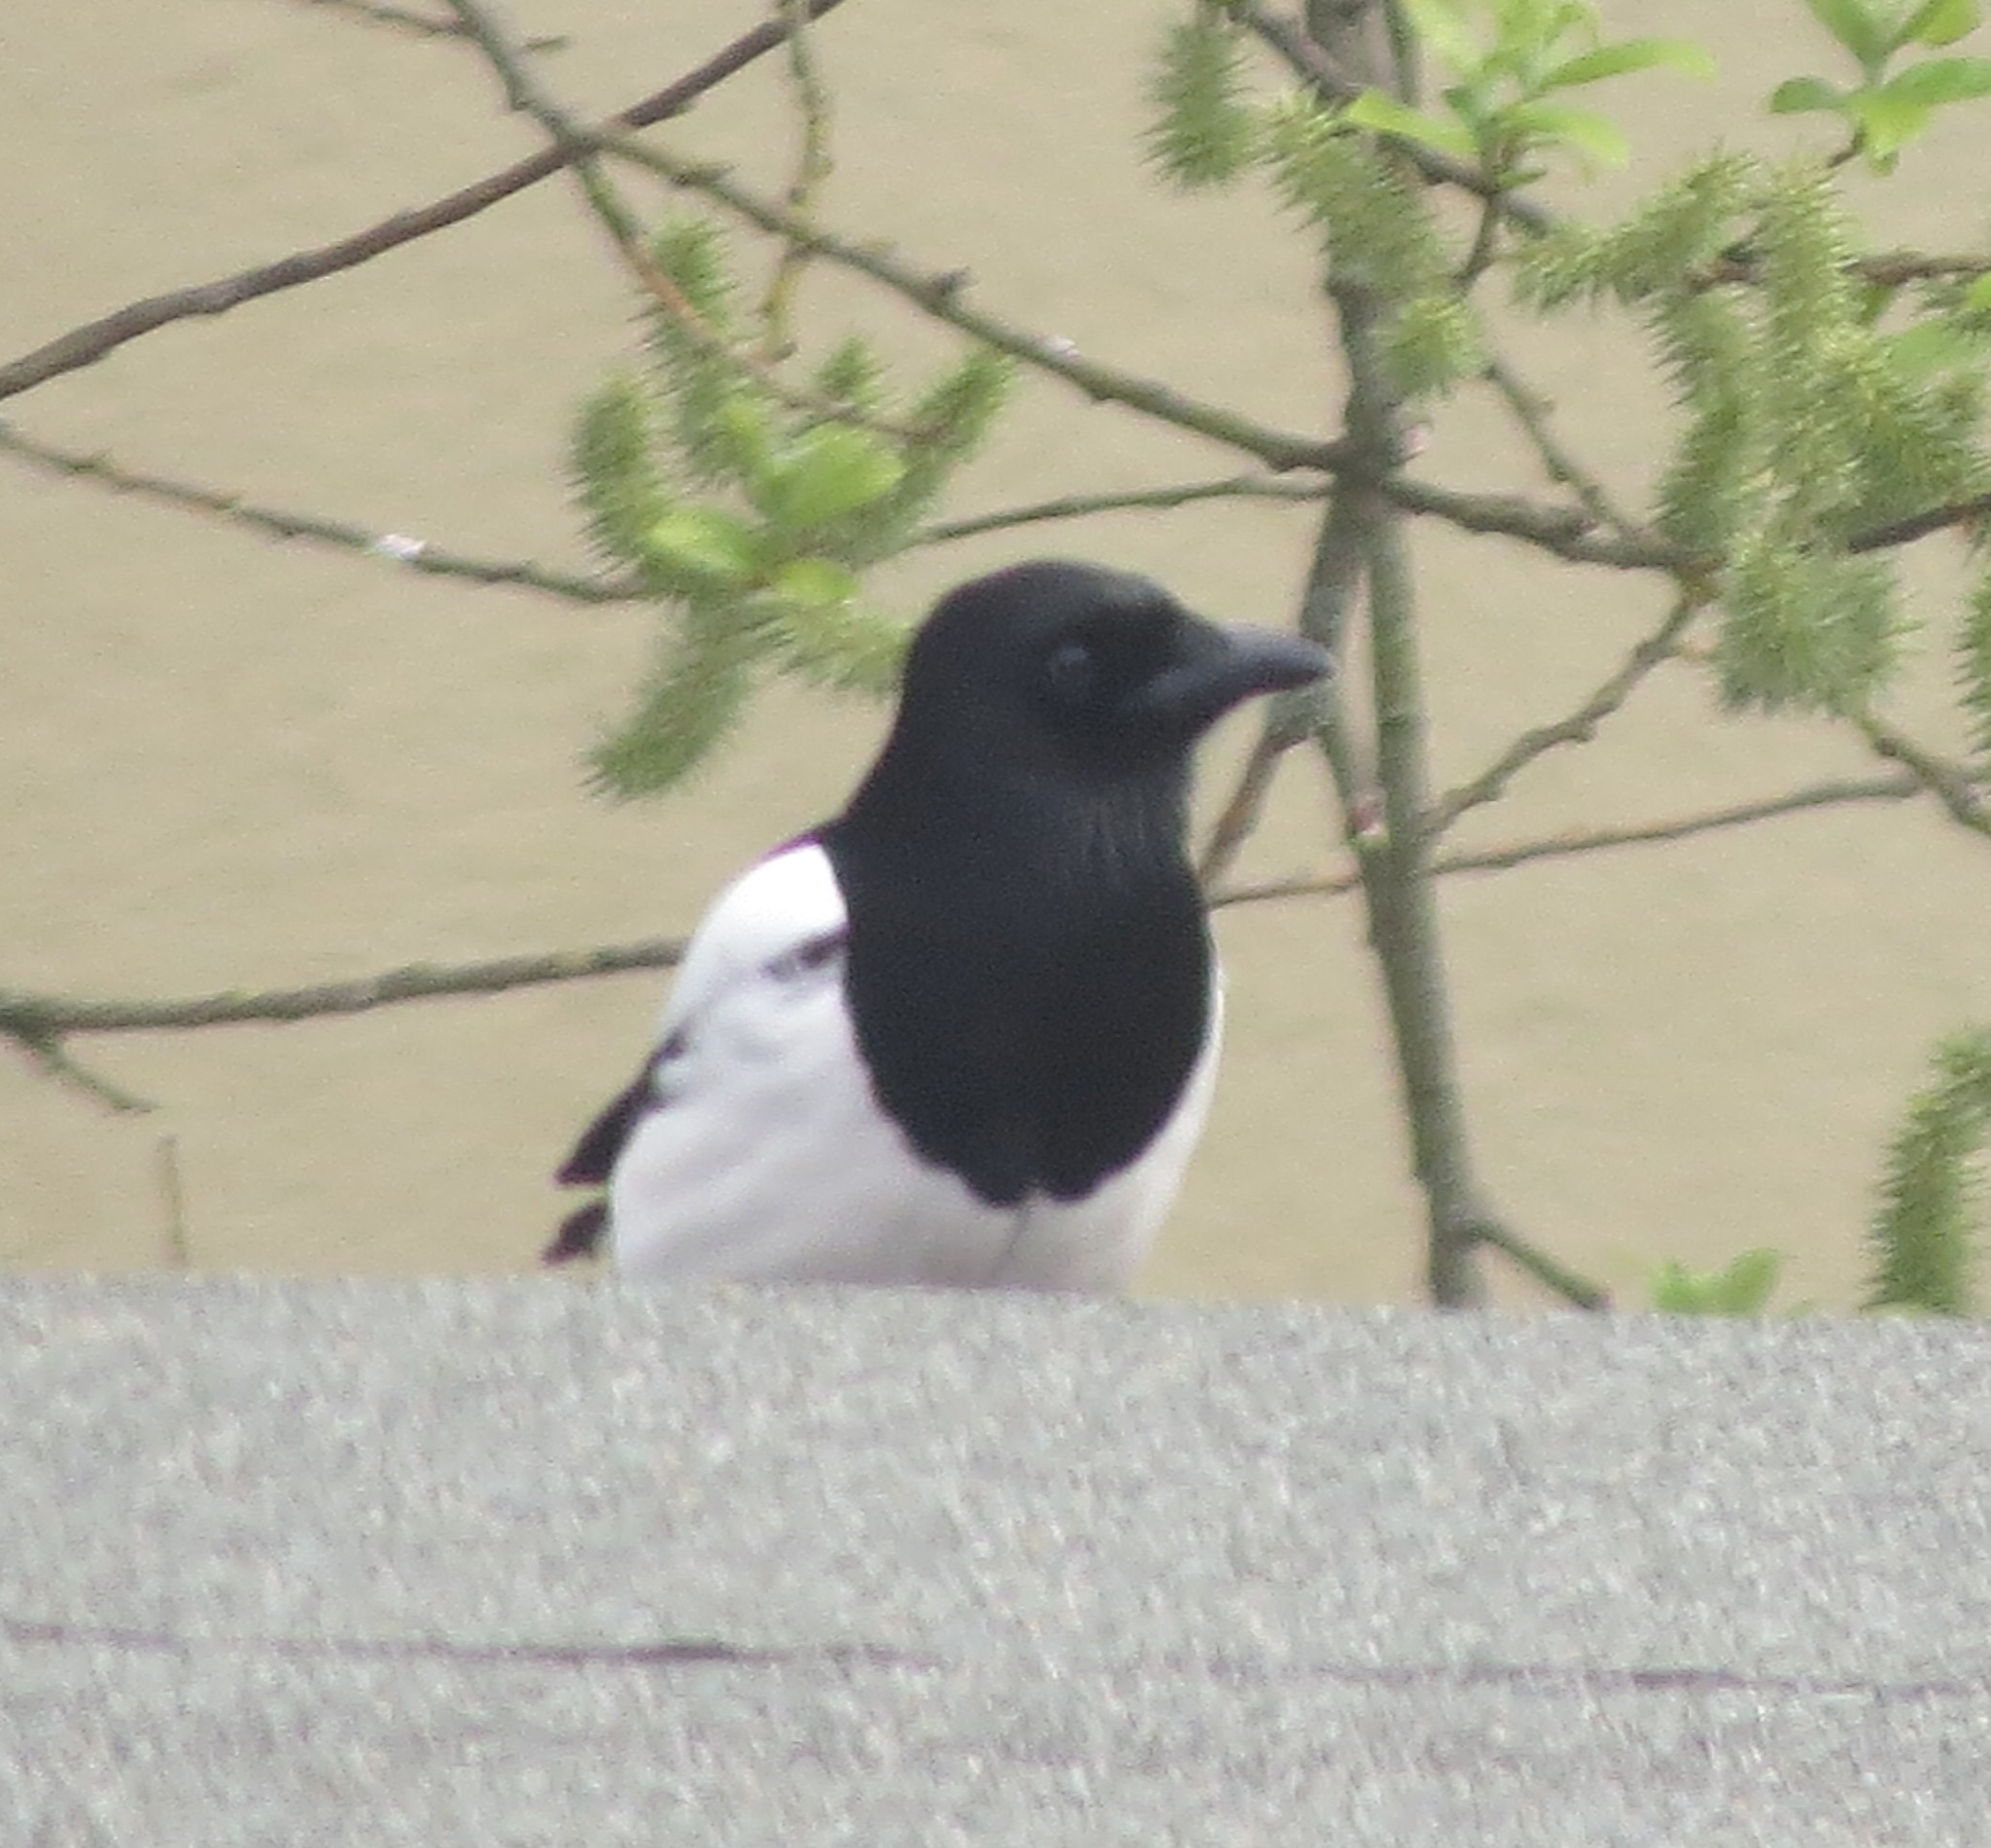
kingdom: Animalia
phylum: Chordata
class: Aves
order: Passeriformes
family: Corvidae
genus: Pica
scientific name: Pica pica
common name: Eurasian magpie
